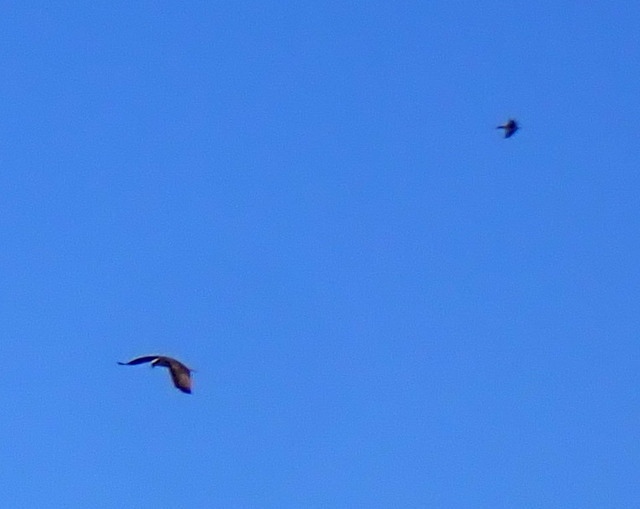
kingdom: Animalia
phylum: Chordata
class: Aves
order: Accipitriformes
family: Pandionidae
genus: Pandion
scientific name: Pandion haliaetus
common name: Osprey
